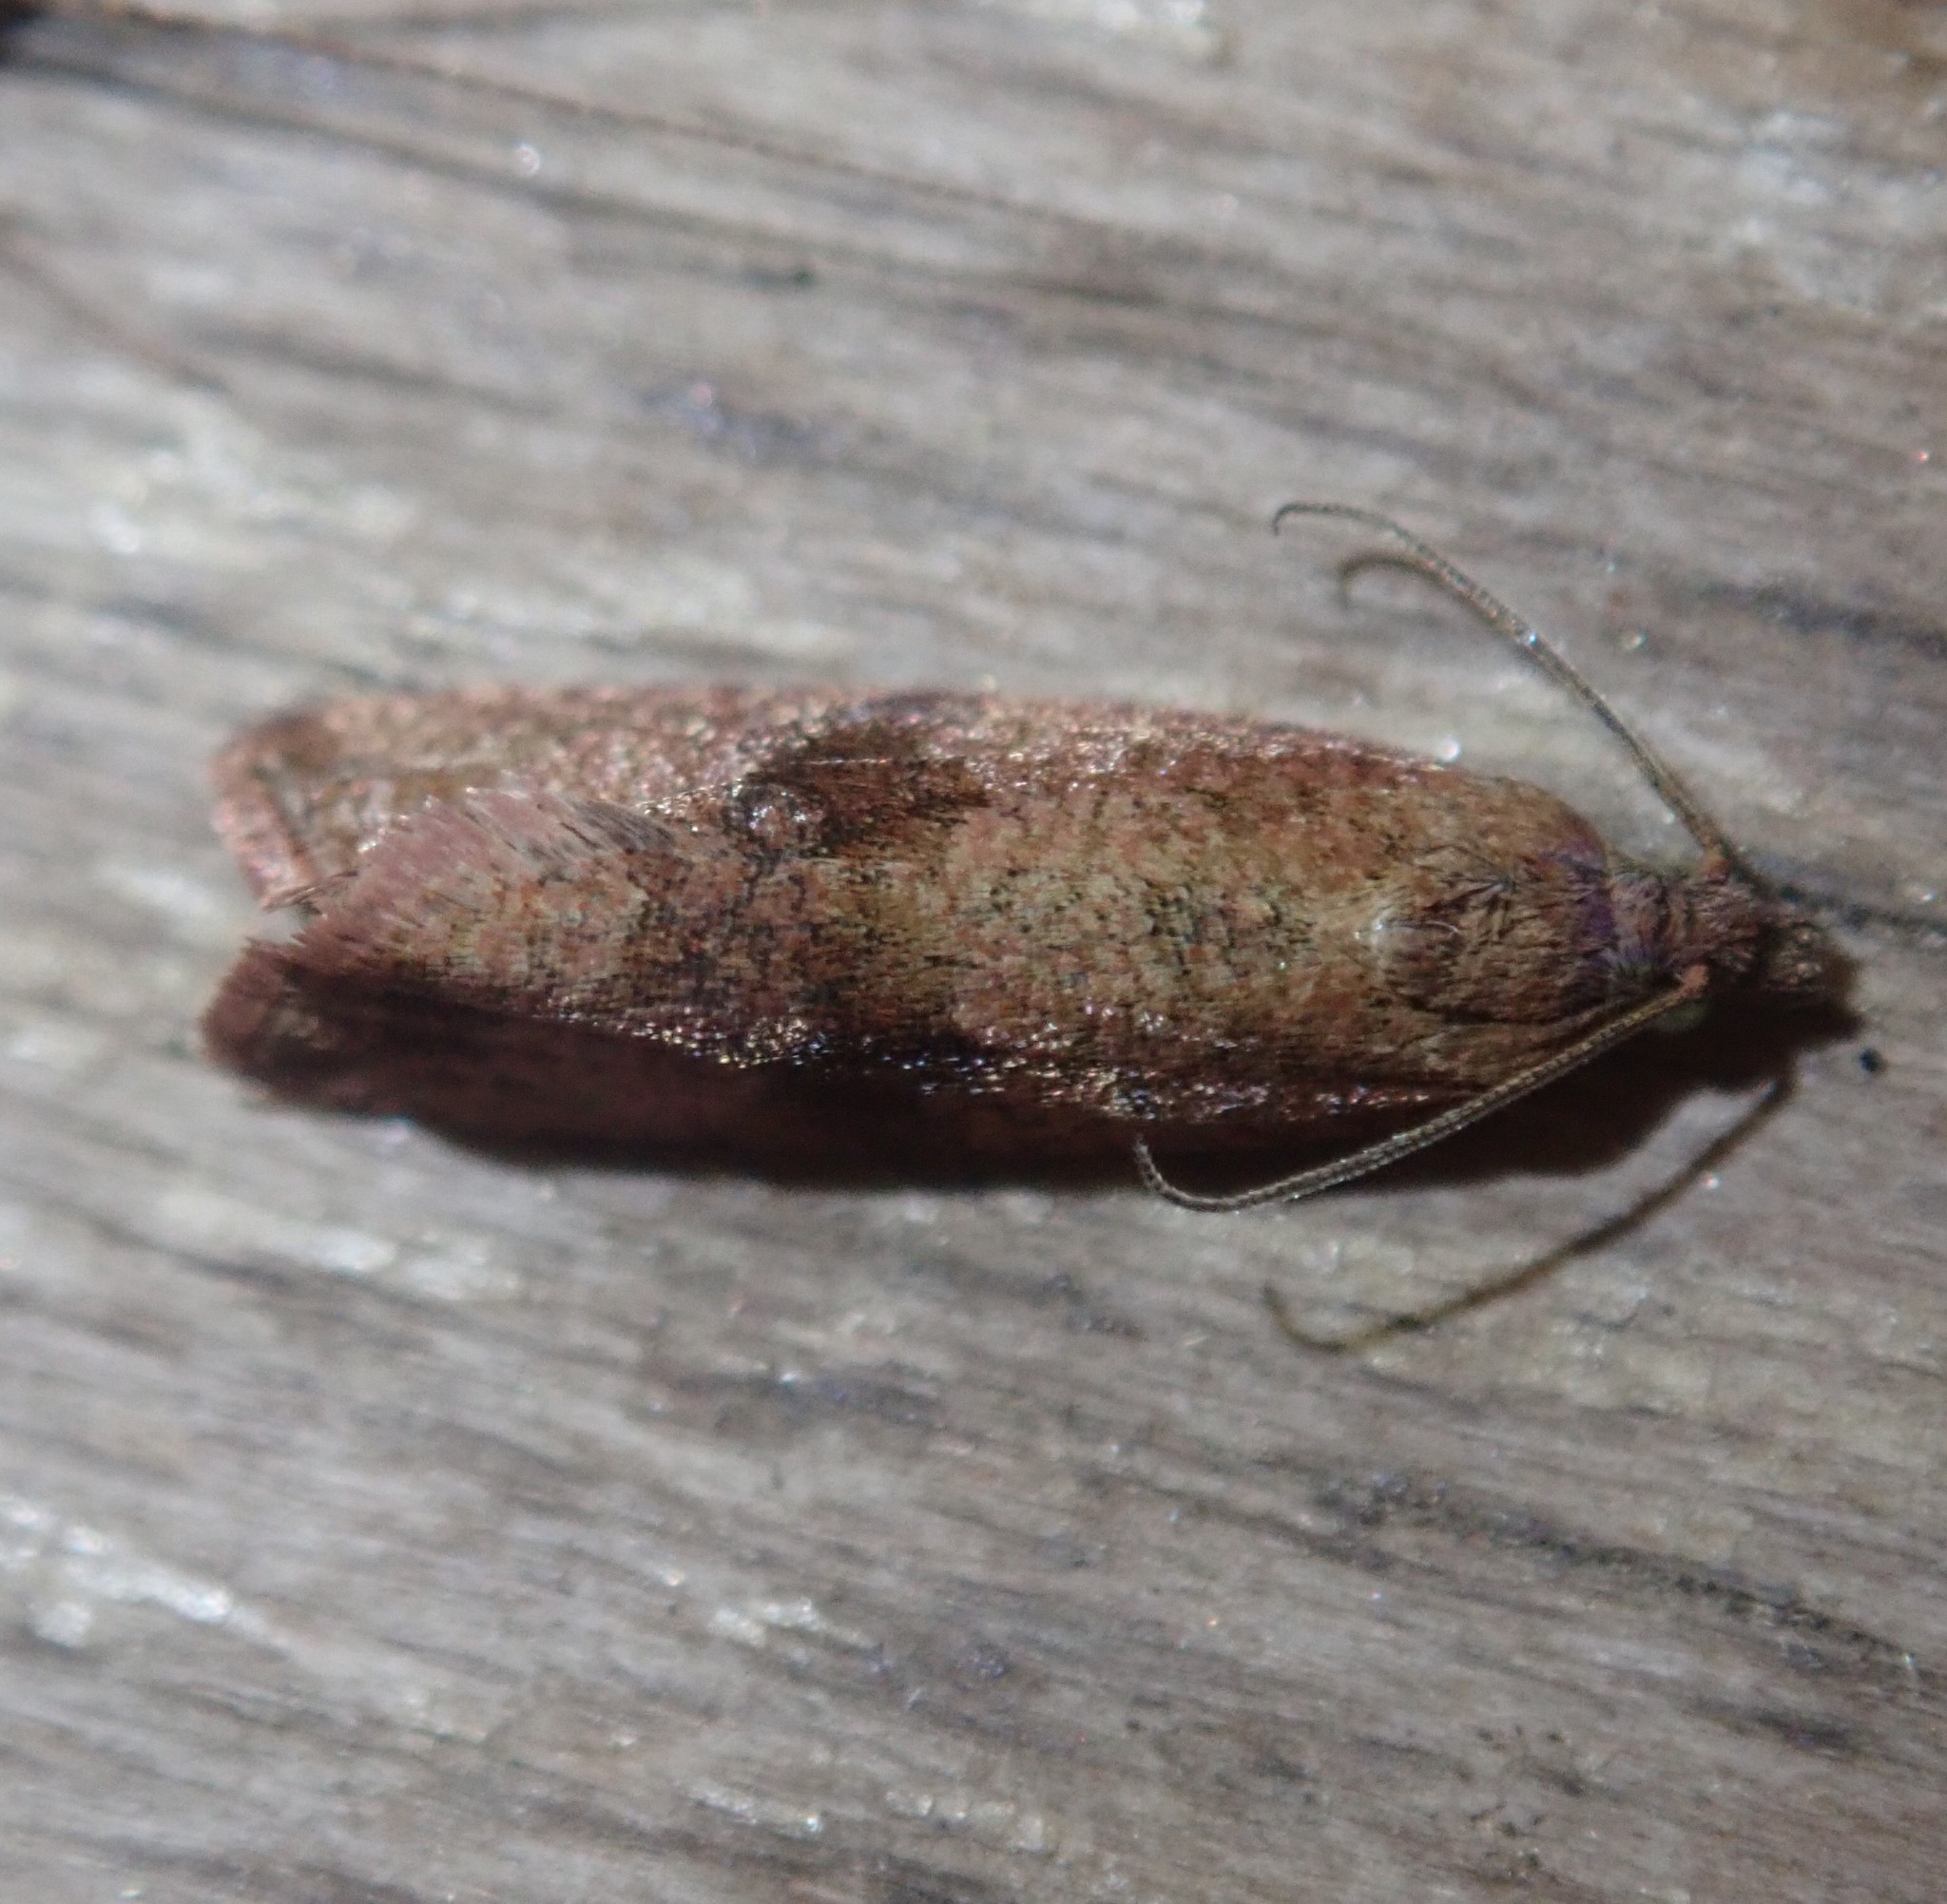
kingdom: Animalia
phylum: Arthropoda
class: Insecta
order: Lepidoptera
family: Tortricidae
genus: Celypha
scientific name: Celypha striana
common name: Barred marble
